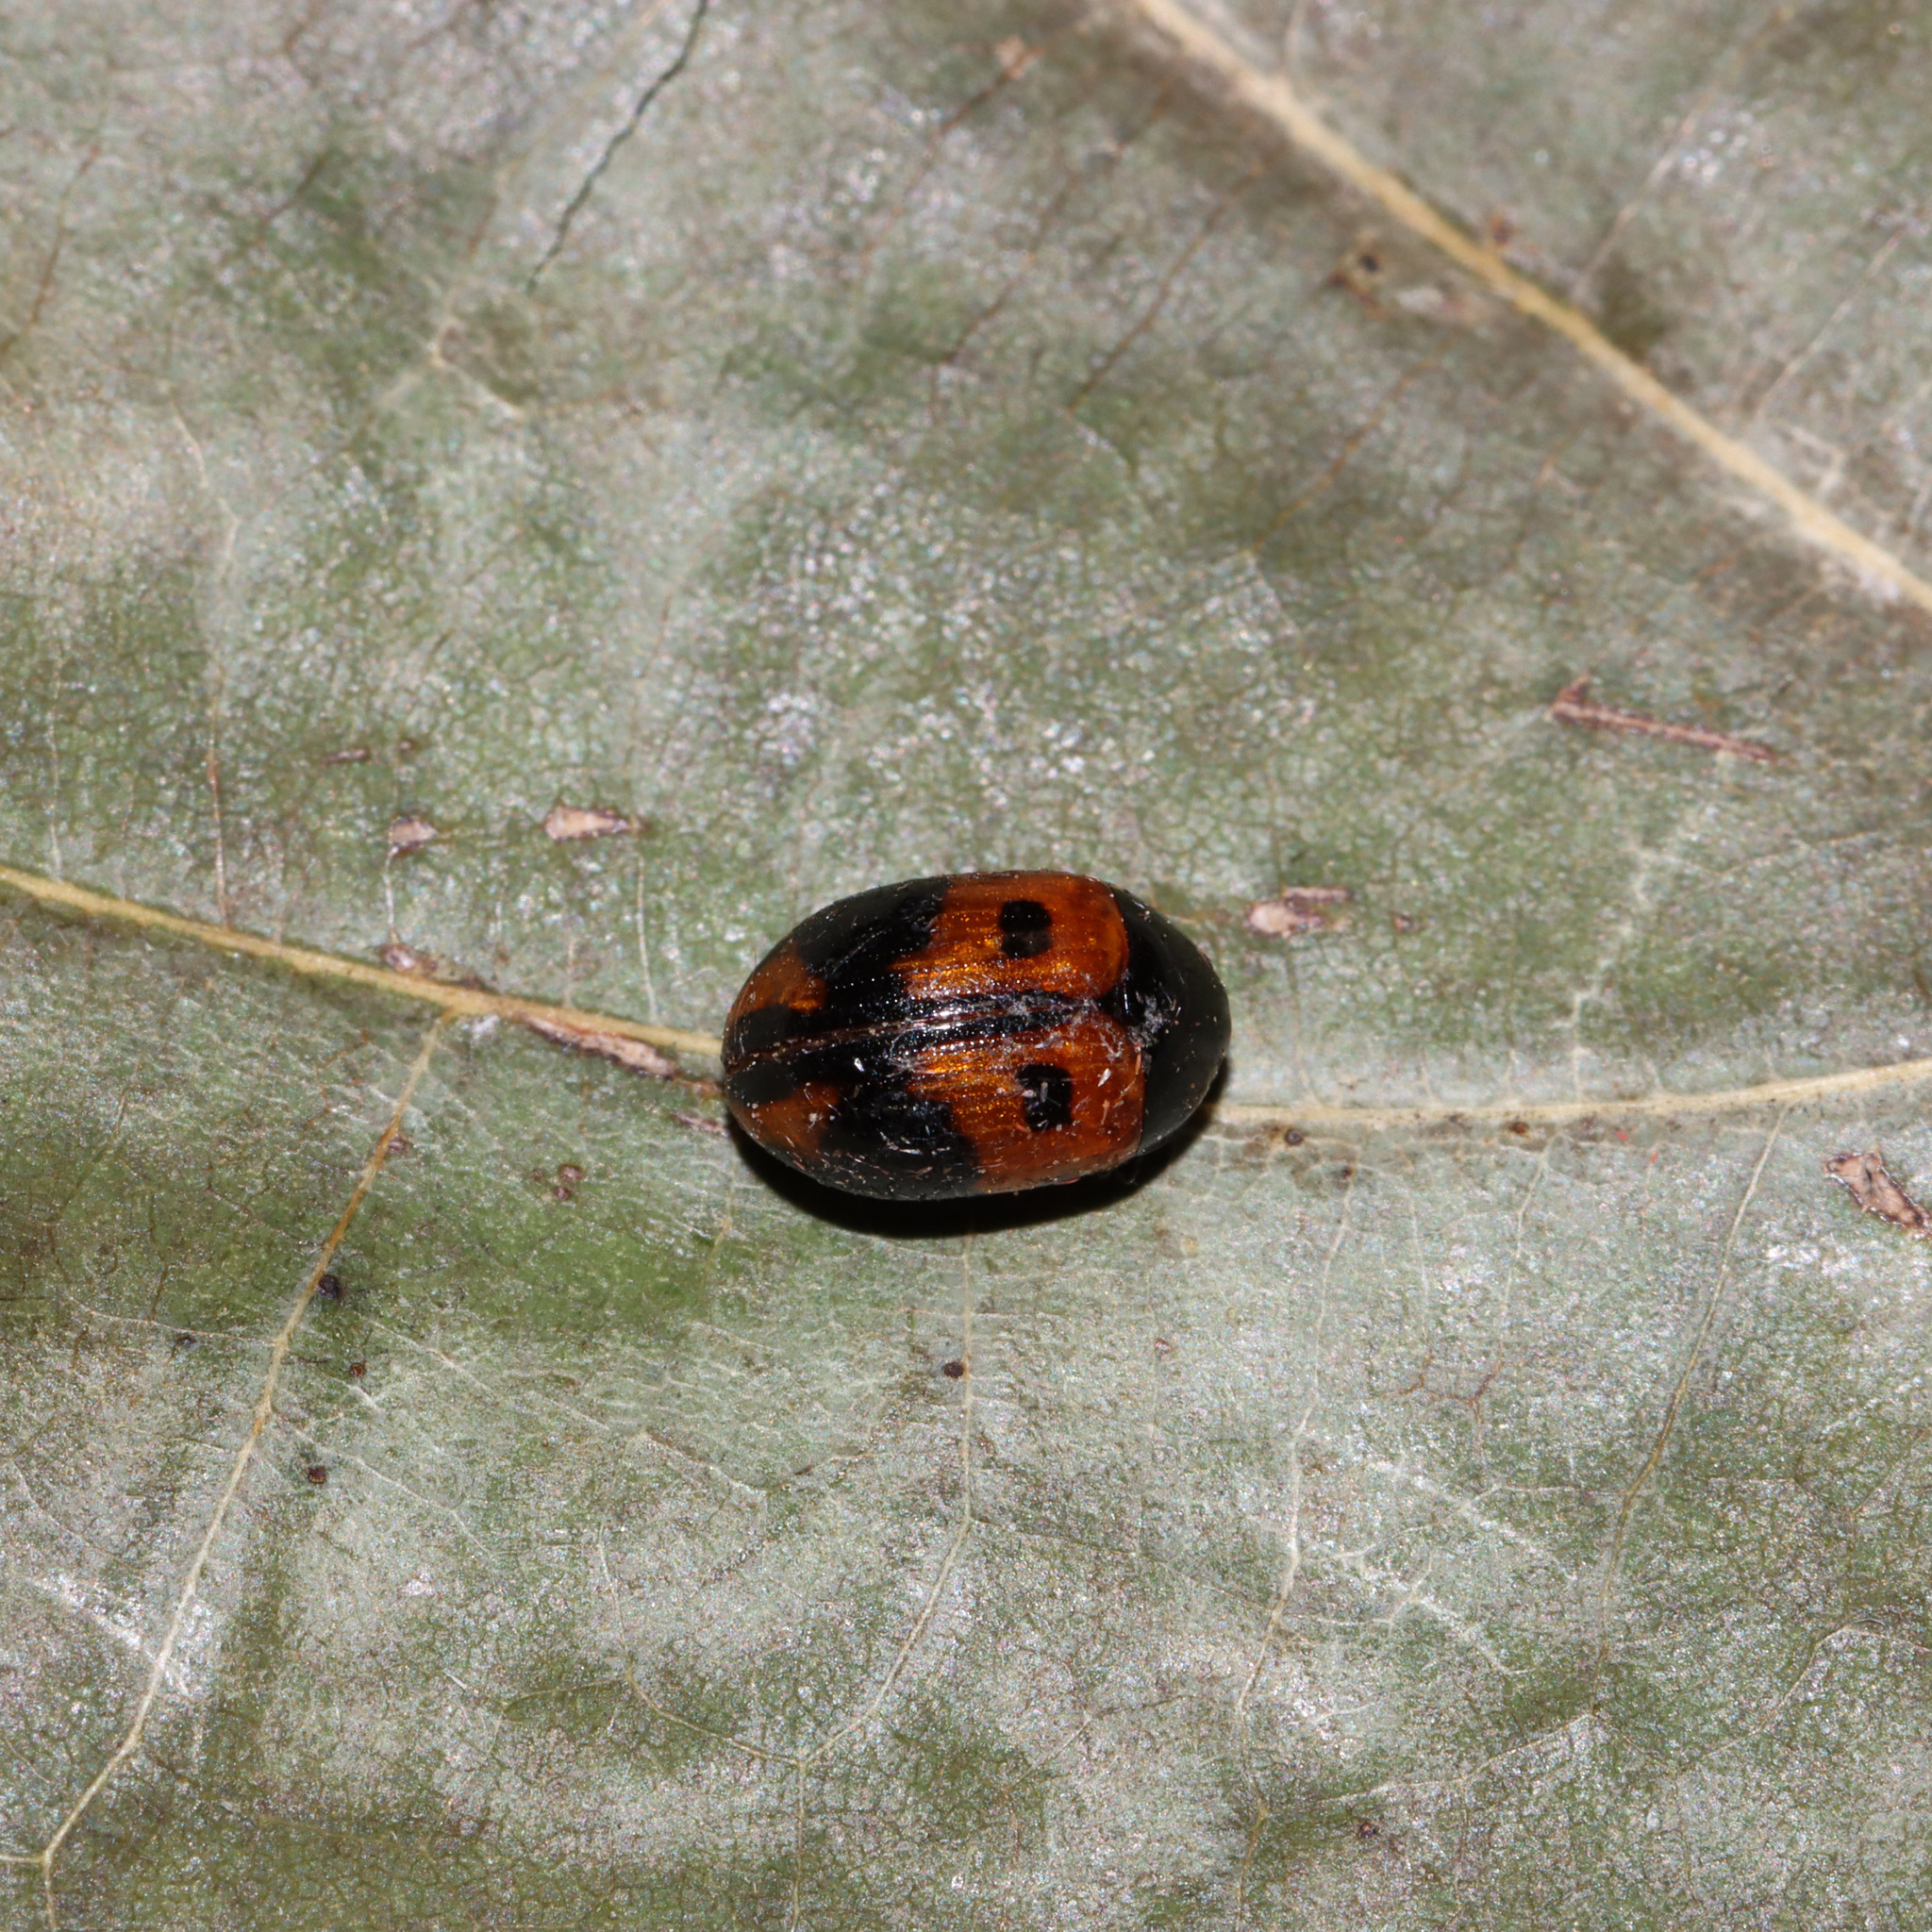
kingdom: Animalia
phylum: Arthropoda
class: Insecta
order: Coleoptera
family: Tenebrionidae
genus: Diaperis
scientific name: Diaperis maculata
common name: Darkling beetle
